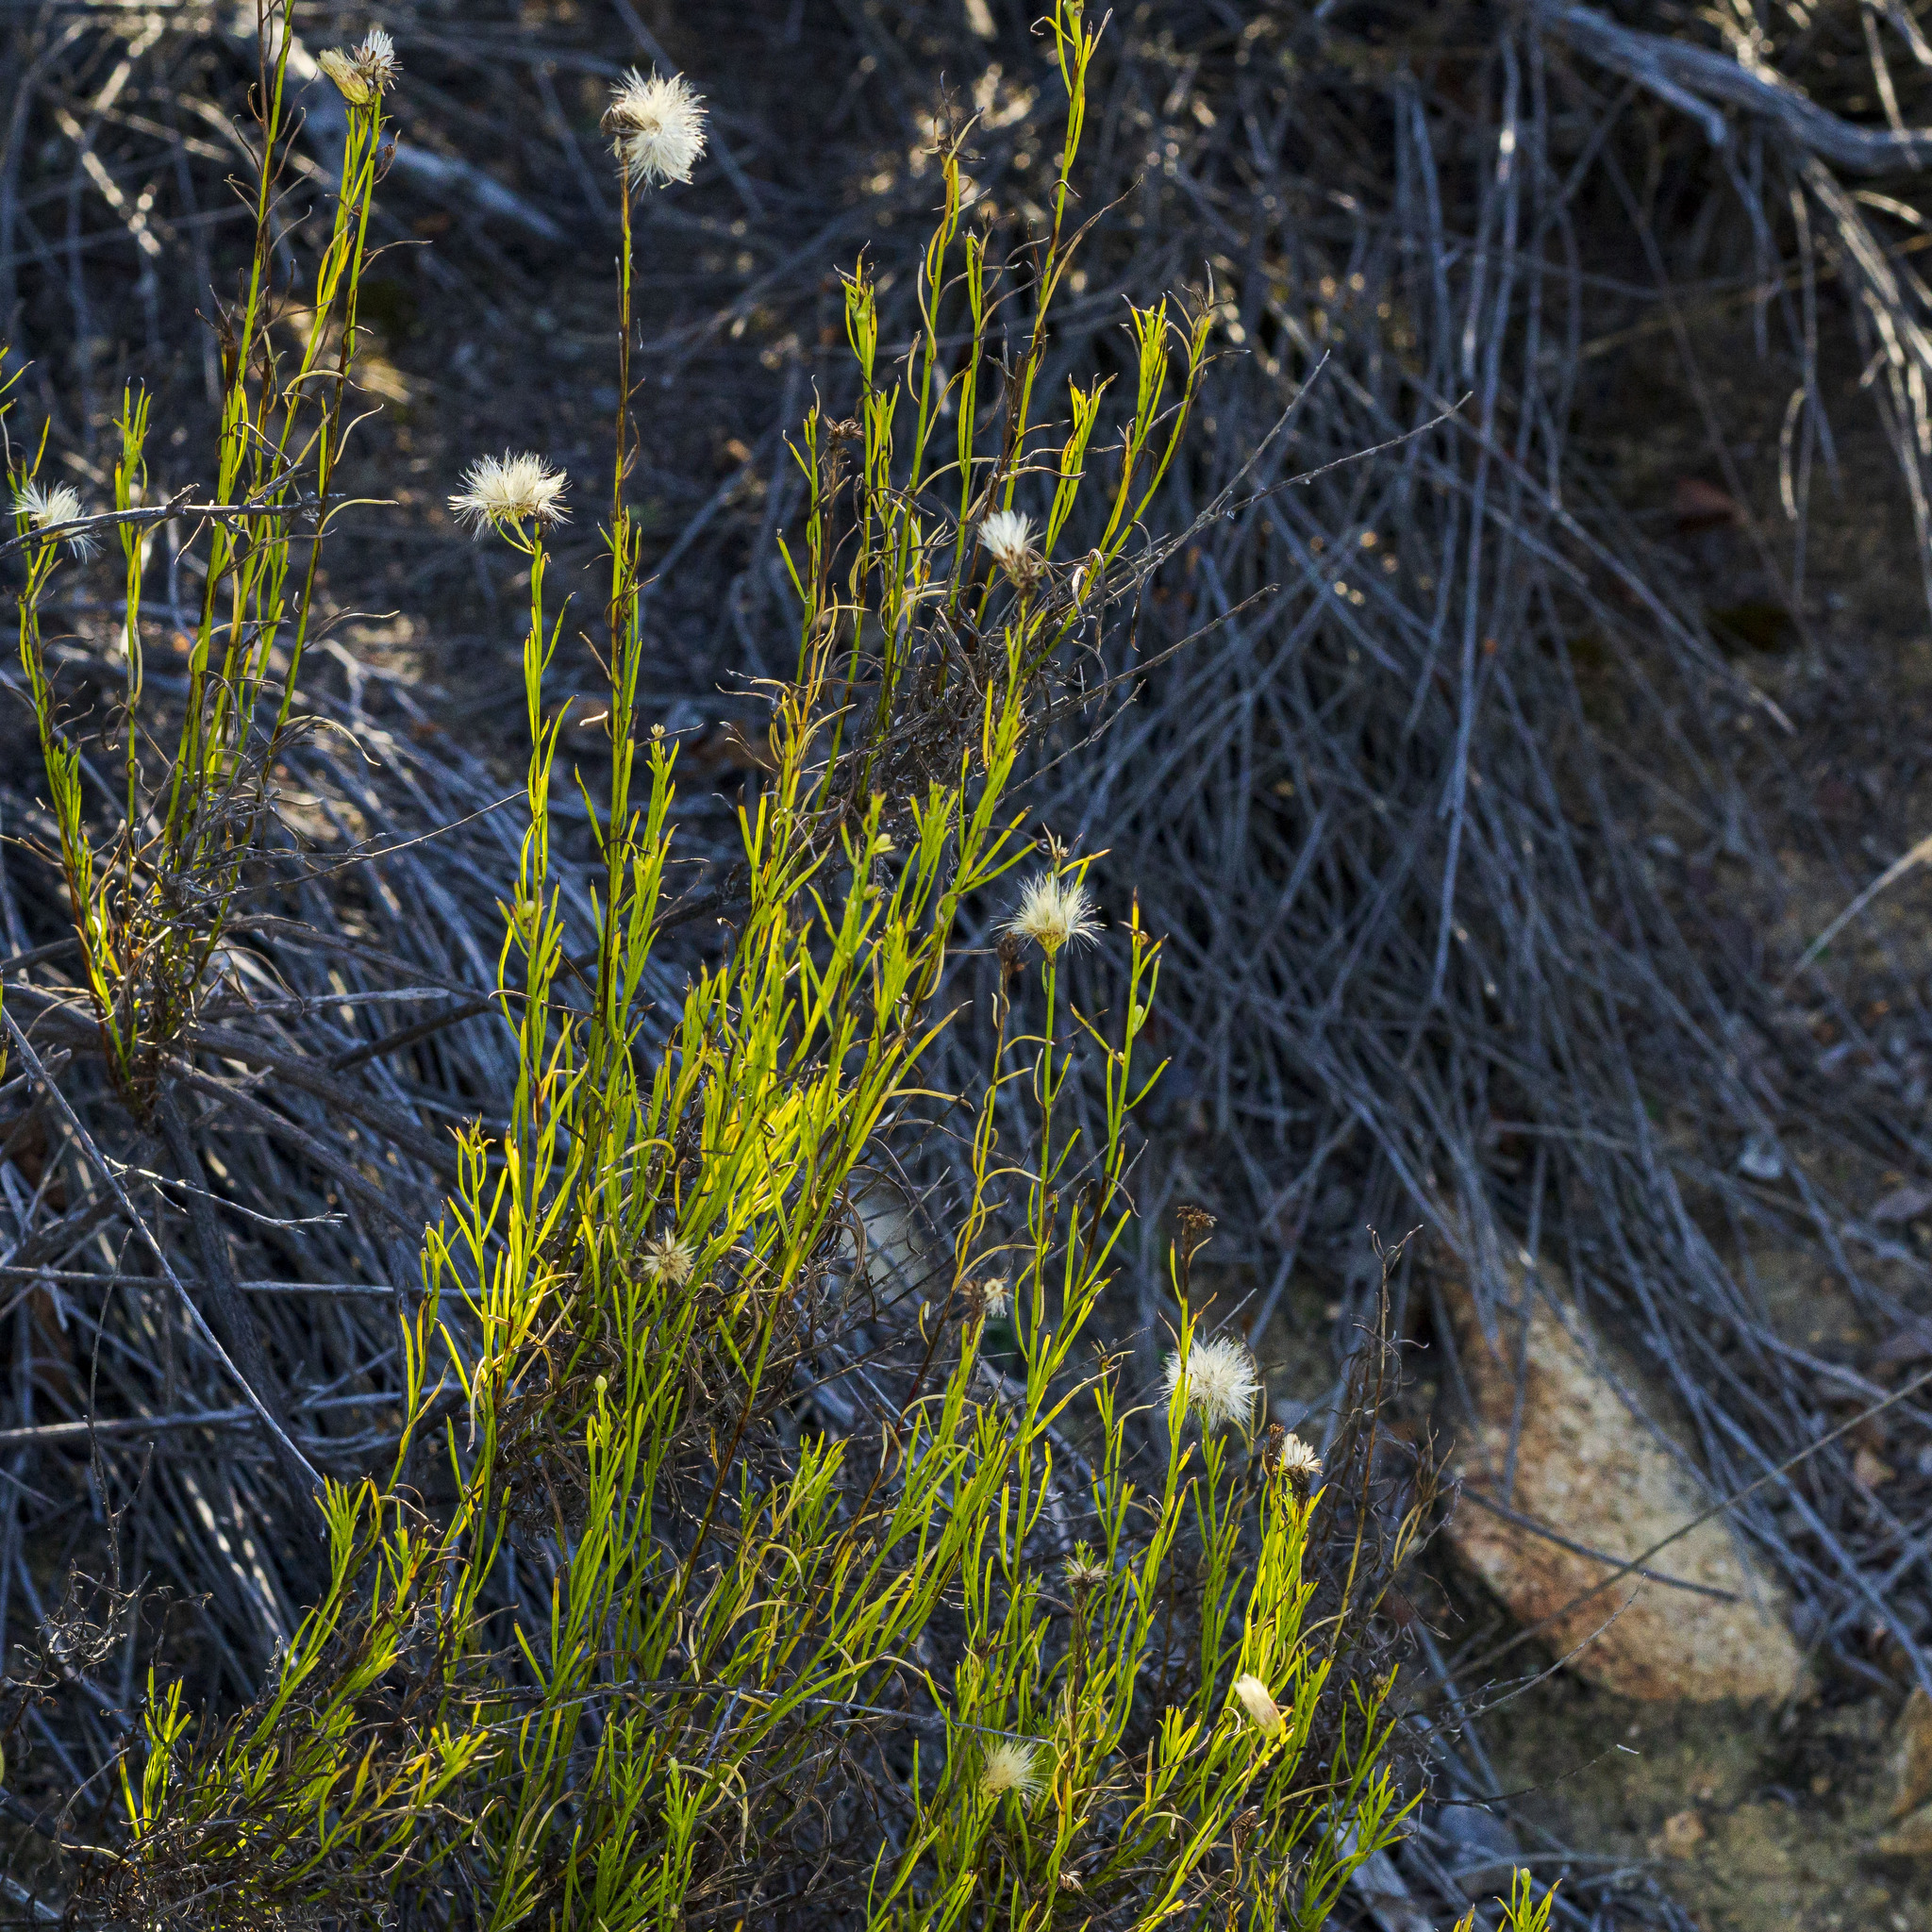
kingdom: Plantae
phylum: Tracheophyta
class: Magnoliopsida
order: Asterales
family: Asteraceae
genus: Baccharis
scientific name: Baccharis vanessae
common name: Encinitas baccharis
